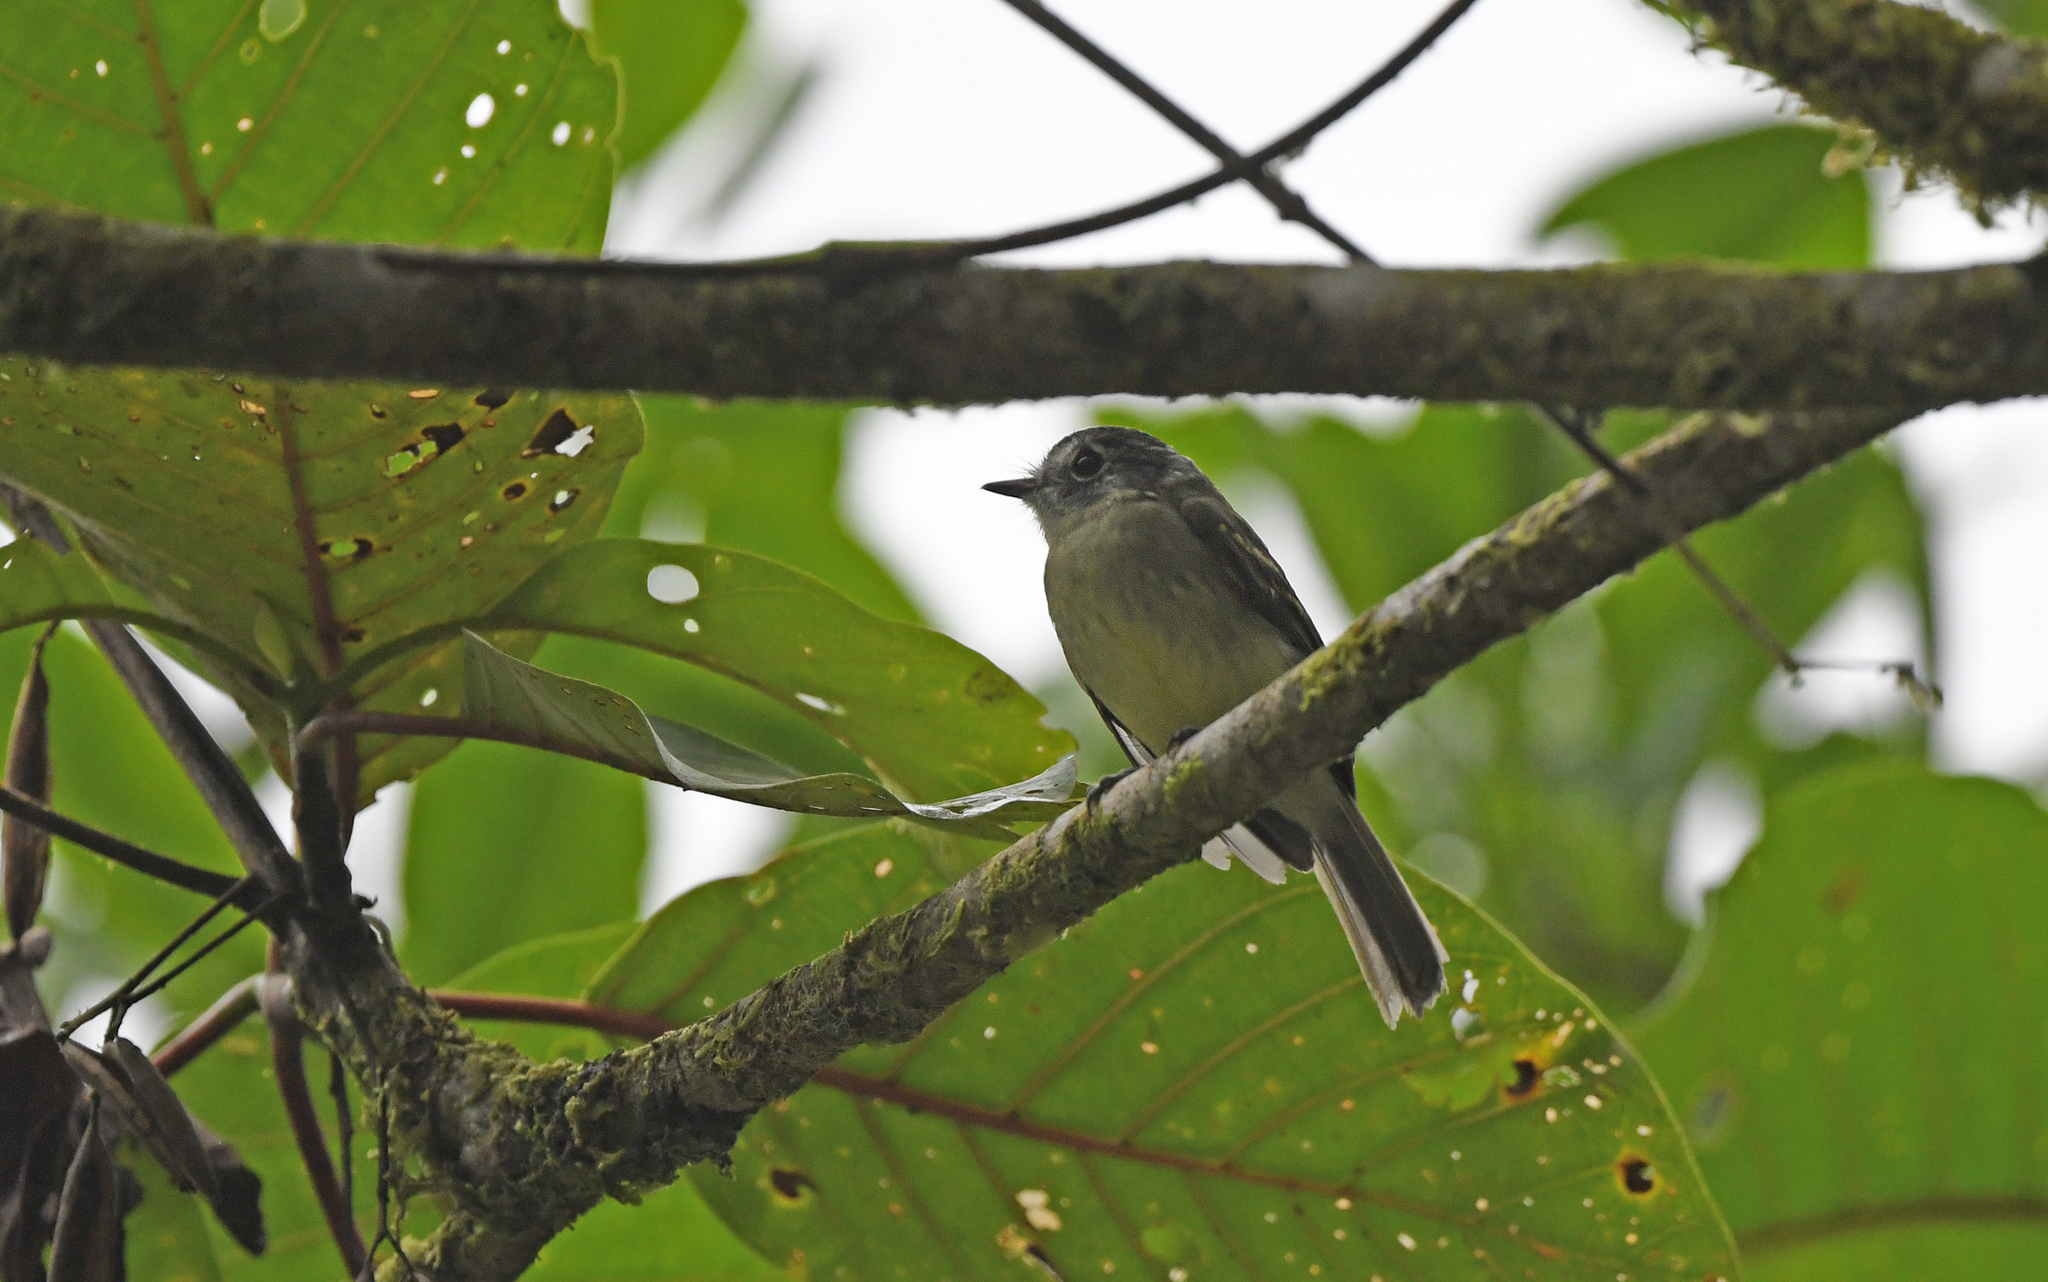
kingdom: Animalia
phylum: Chordata
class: Aves
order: Passeriformes
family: Tyrannidae
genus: Leptopogon
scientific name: Leptopogon superciliaris
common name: Slaty-capped flycatcher
